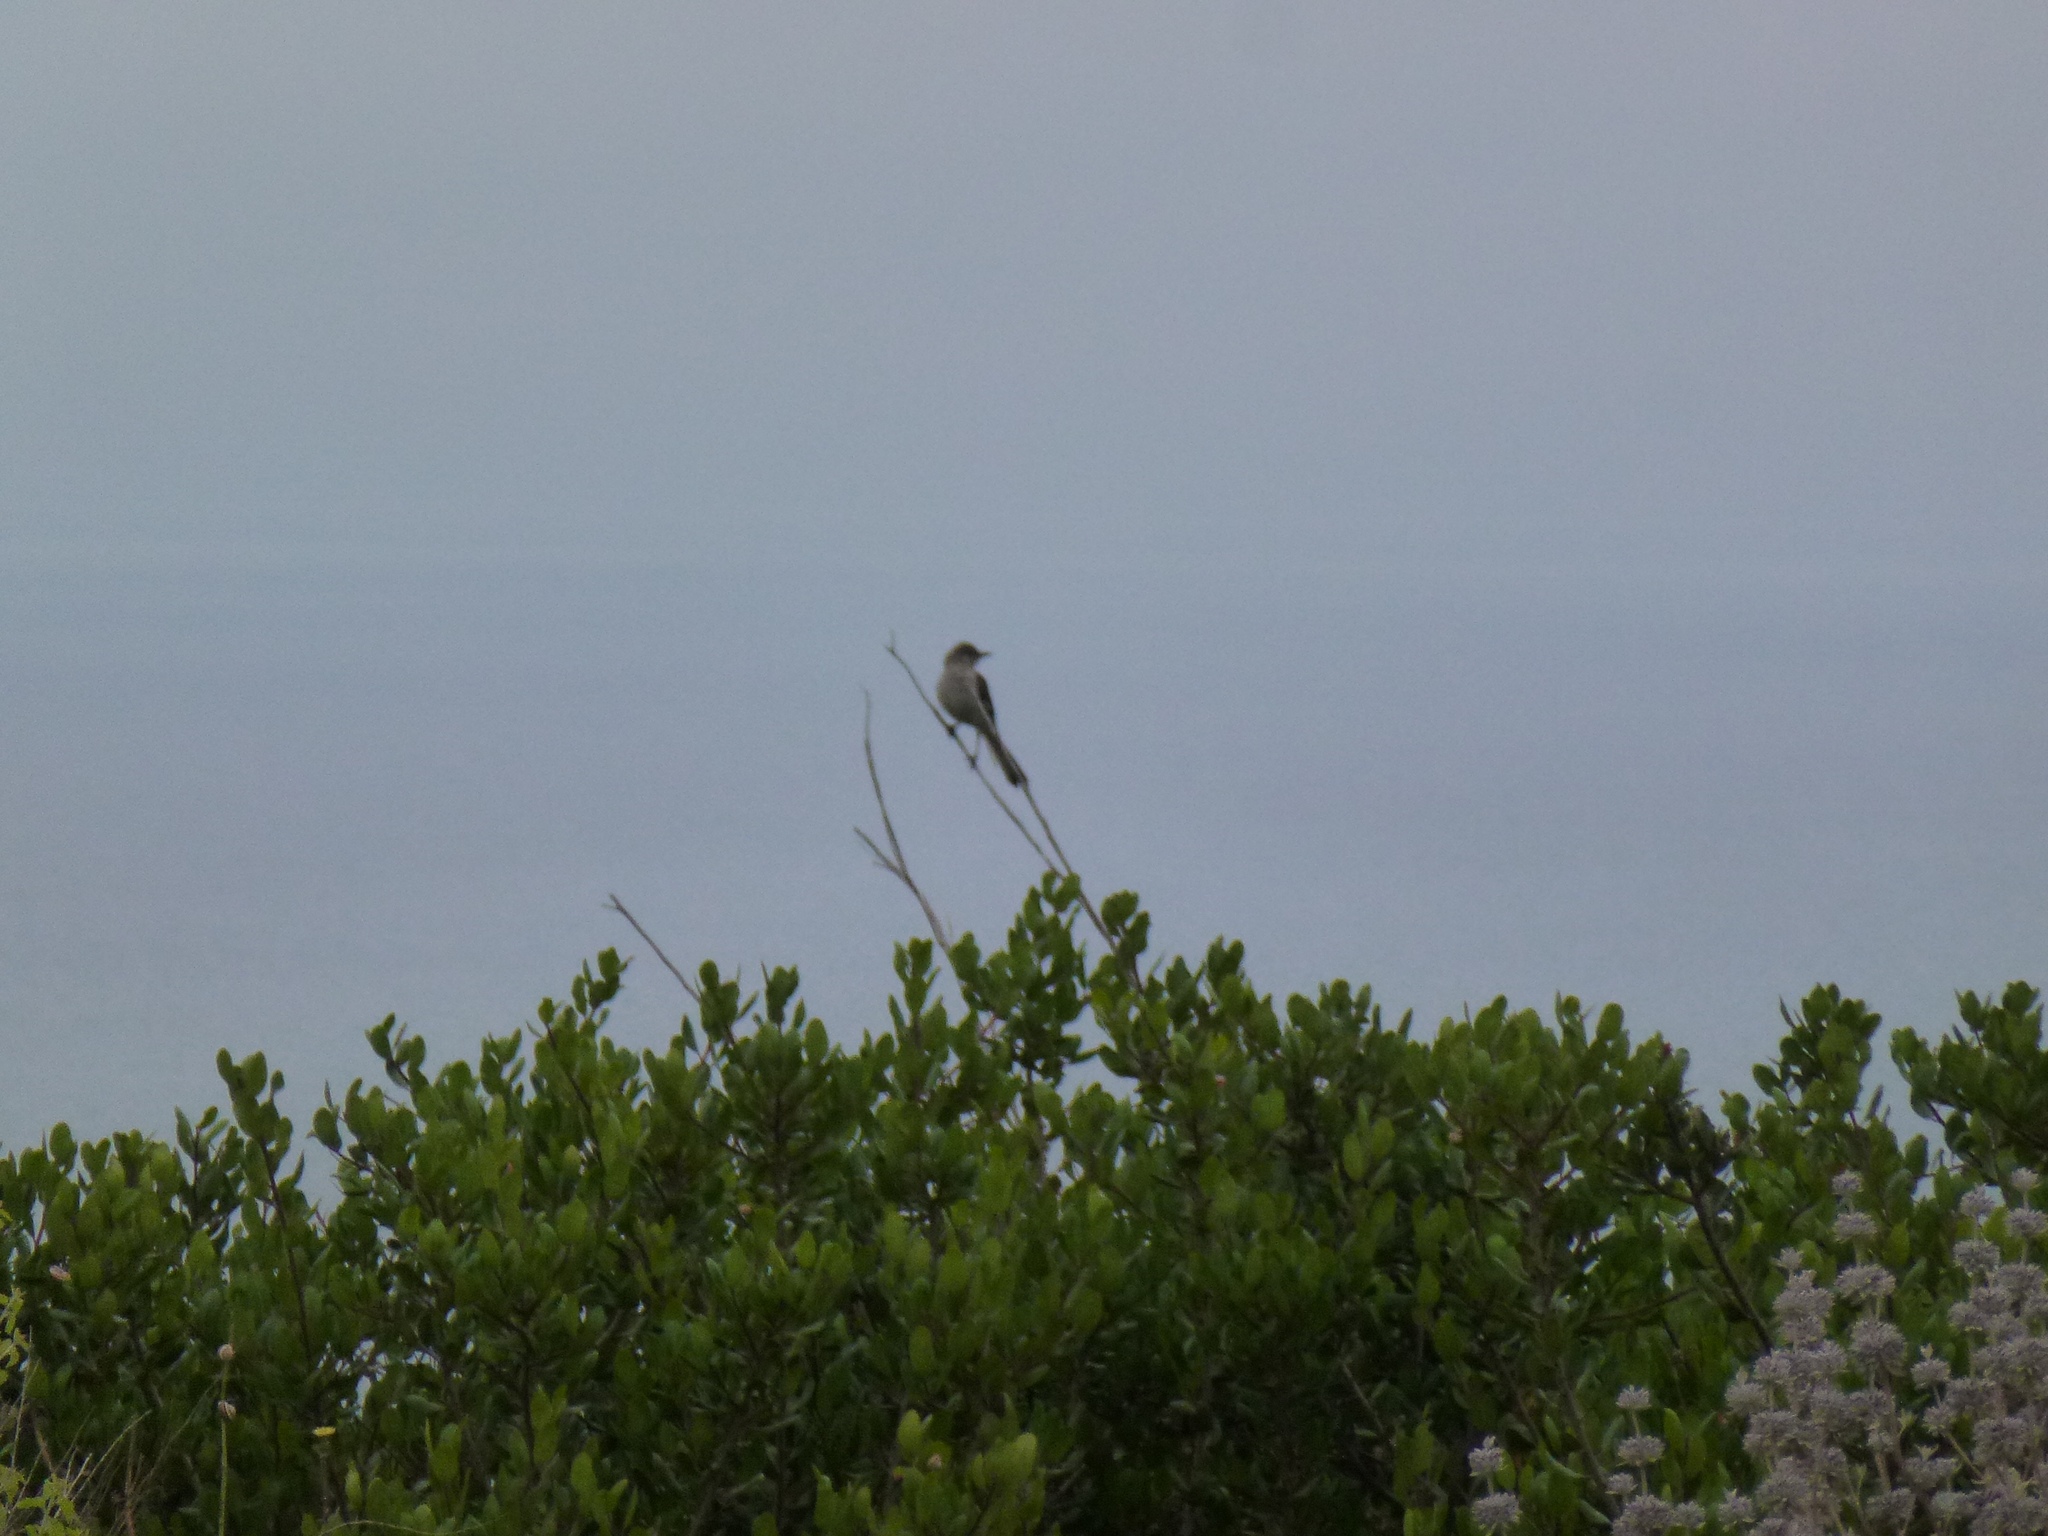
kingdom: Animalia
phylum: Chordata
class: Aves
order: Passeriformes
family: Mimidae
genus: Mimus
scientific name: Mimus polyglottos
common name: Northern mockingbird
